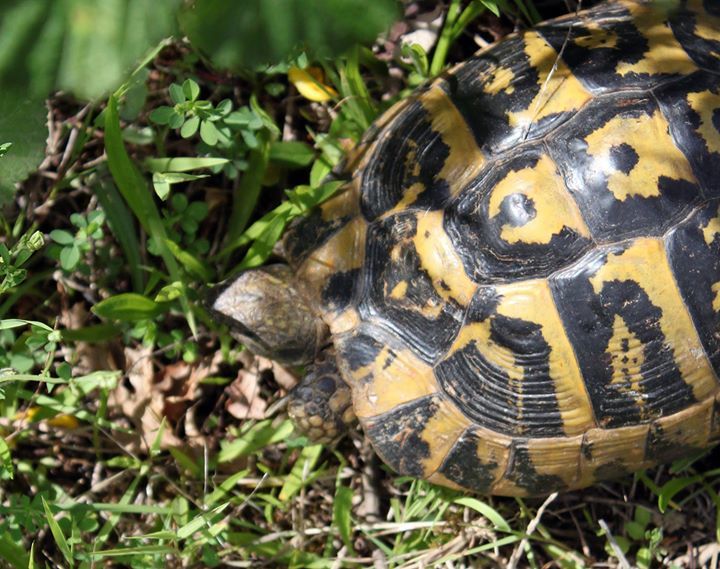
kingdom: Animalia
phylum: Chordata
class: Testudines
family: Testudinidae
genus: Testudo
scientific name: Testudo hermanni
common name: Hermann's tortoise
